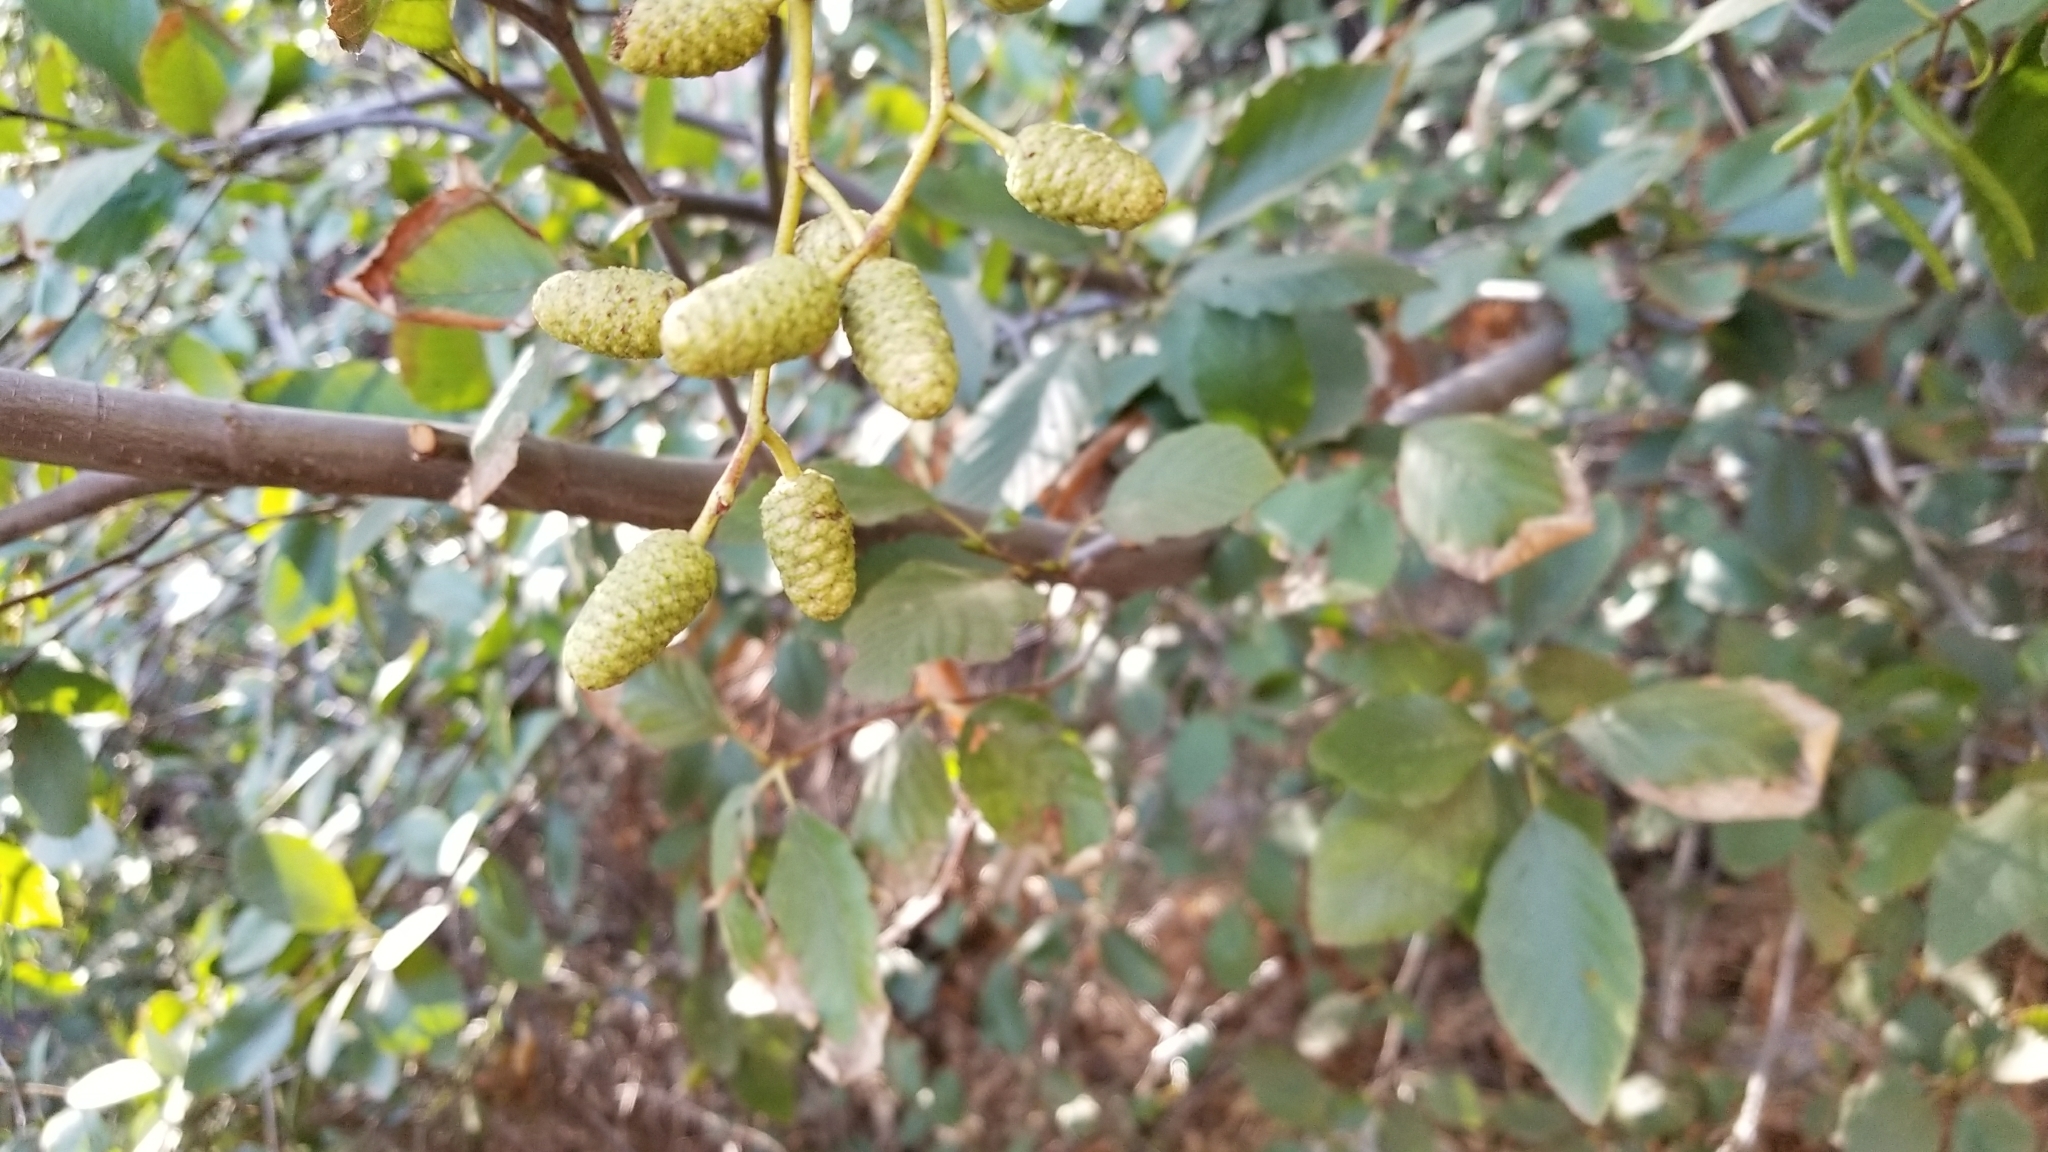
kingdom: Plantae
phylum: Tracheophyta
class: Magnoliopsida
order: Fagales
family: Betulaceae
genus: Alnus
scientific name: Alnus rhombifolia
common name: California alder
